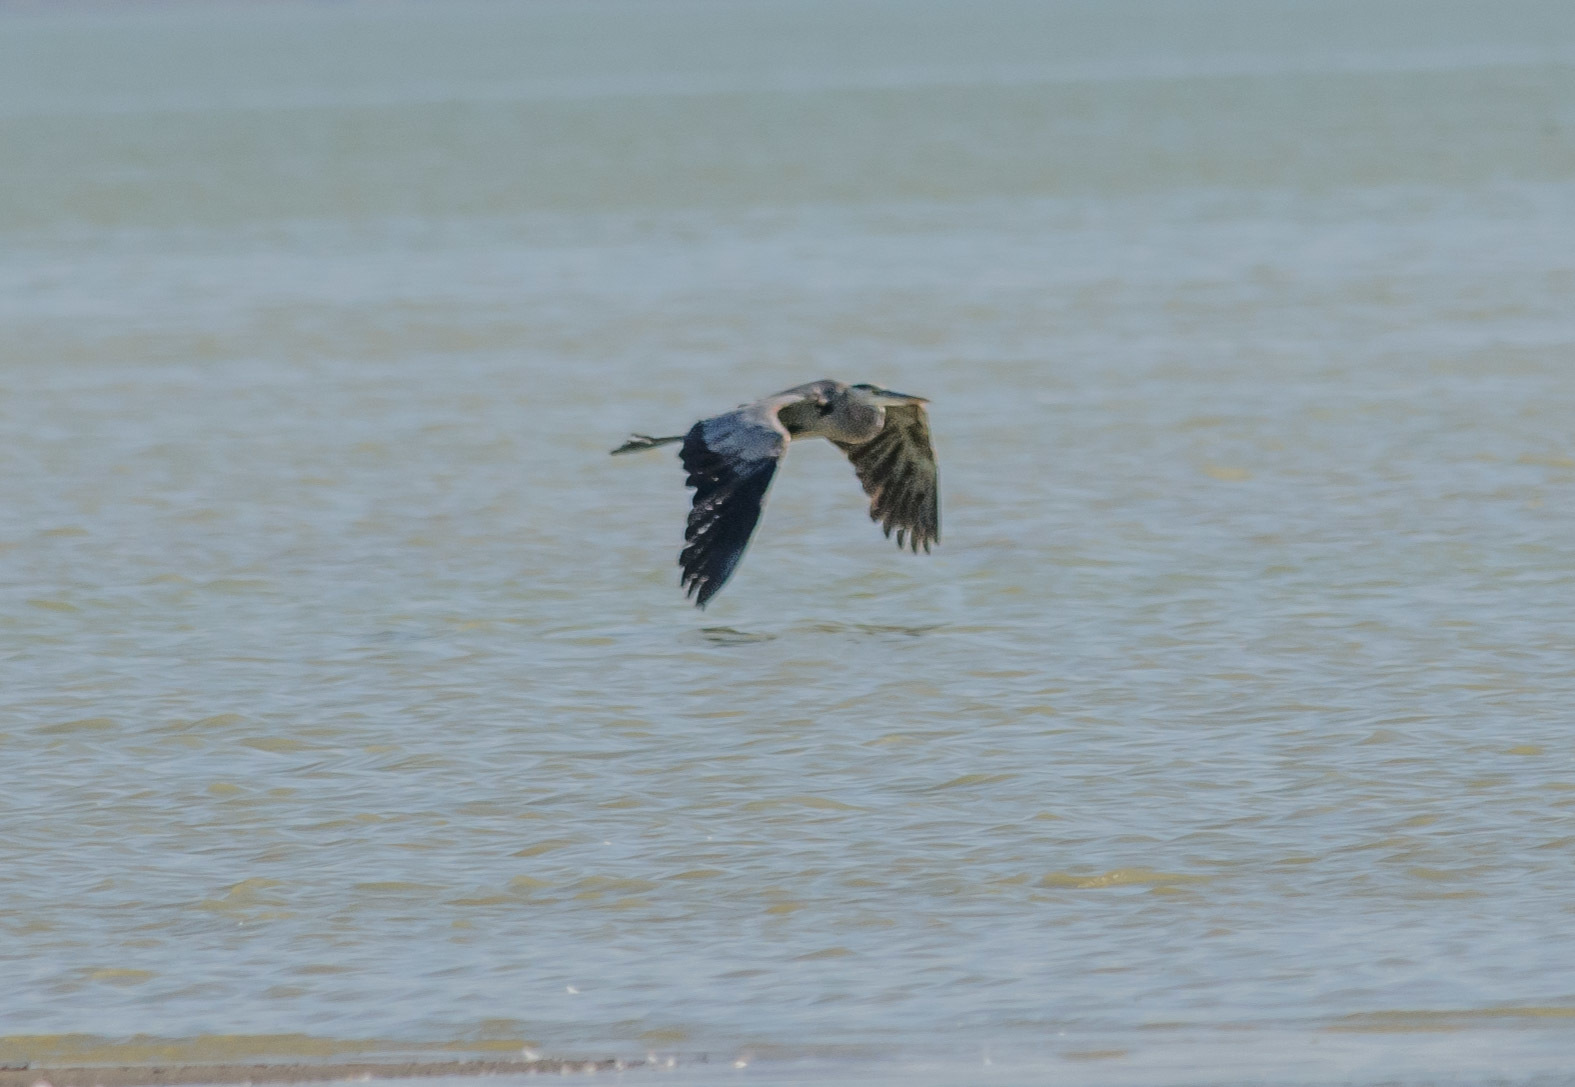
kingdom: Animalia
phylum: Chordata
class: Aves
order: Pelecaniformes
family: Ardeidae
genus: Ardea
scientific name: Ardea herodias
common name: Great blue heron
